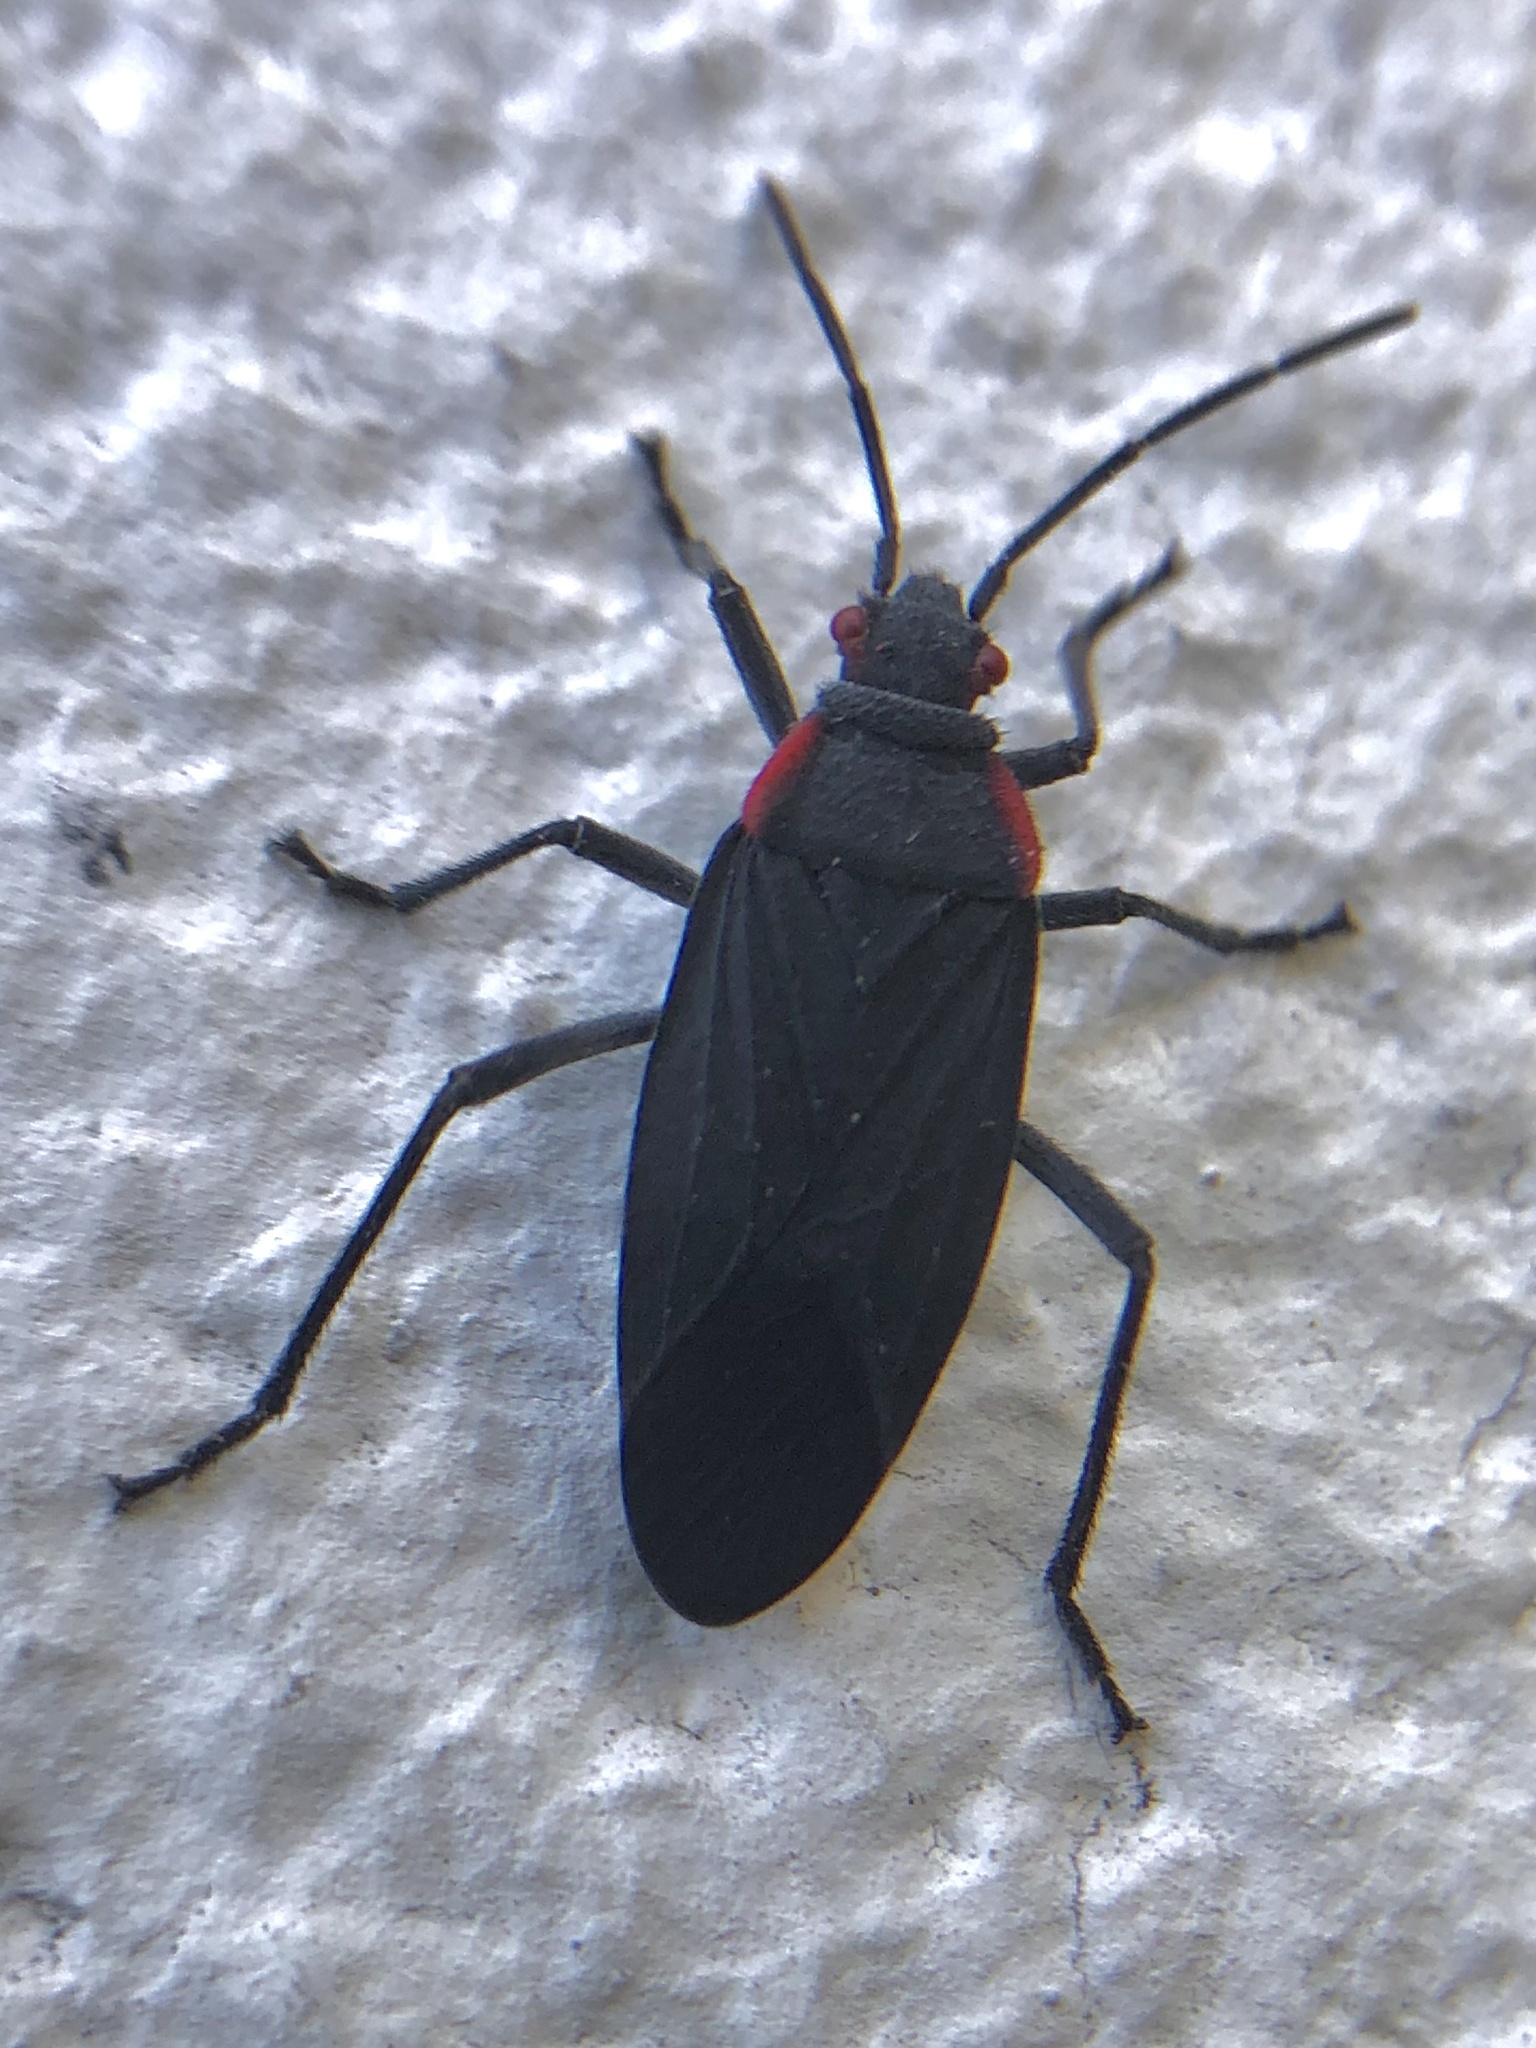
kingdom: Animalia
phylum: Arthropoda
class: Insecta
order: Hemiptera
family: Rhopalidae
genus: Jadera
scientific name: Jadera haematoloma
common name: Red-shouldered bug
